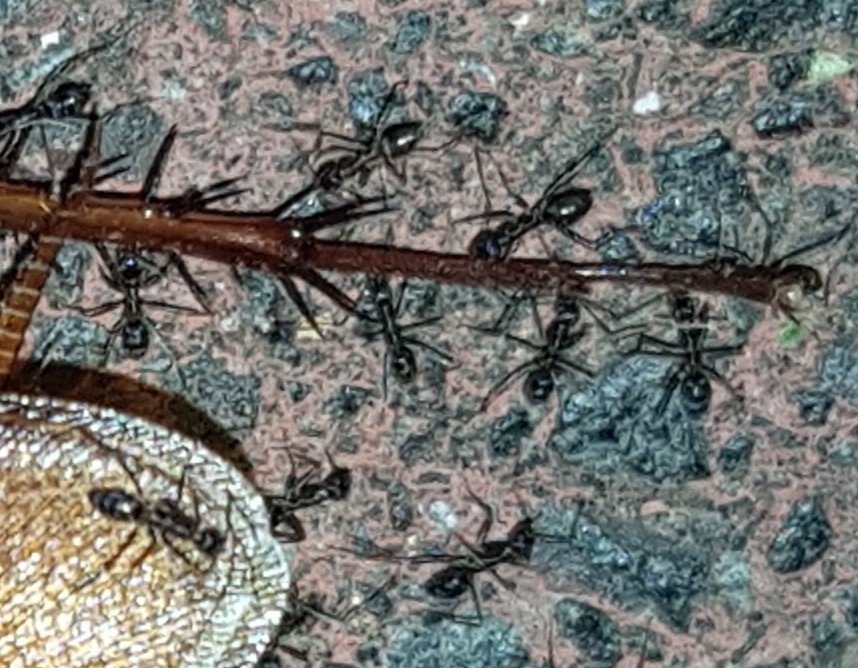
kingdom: Animalia
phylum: Arthropoda
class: Insecta
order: Hymenoptera
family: Formicidae
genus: Paratrechina
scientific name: Paratrechina longicornis
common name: Longhorned crazy ant
